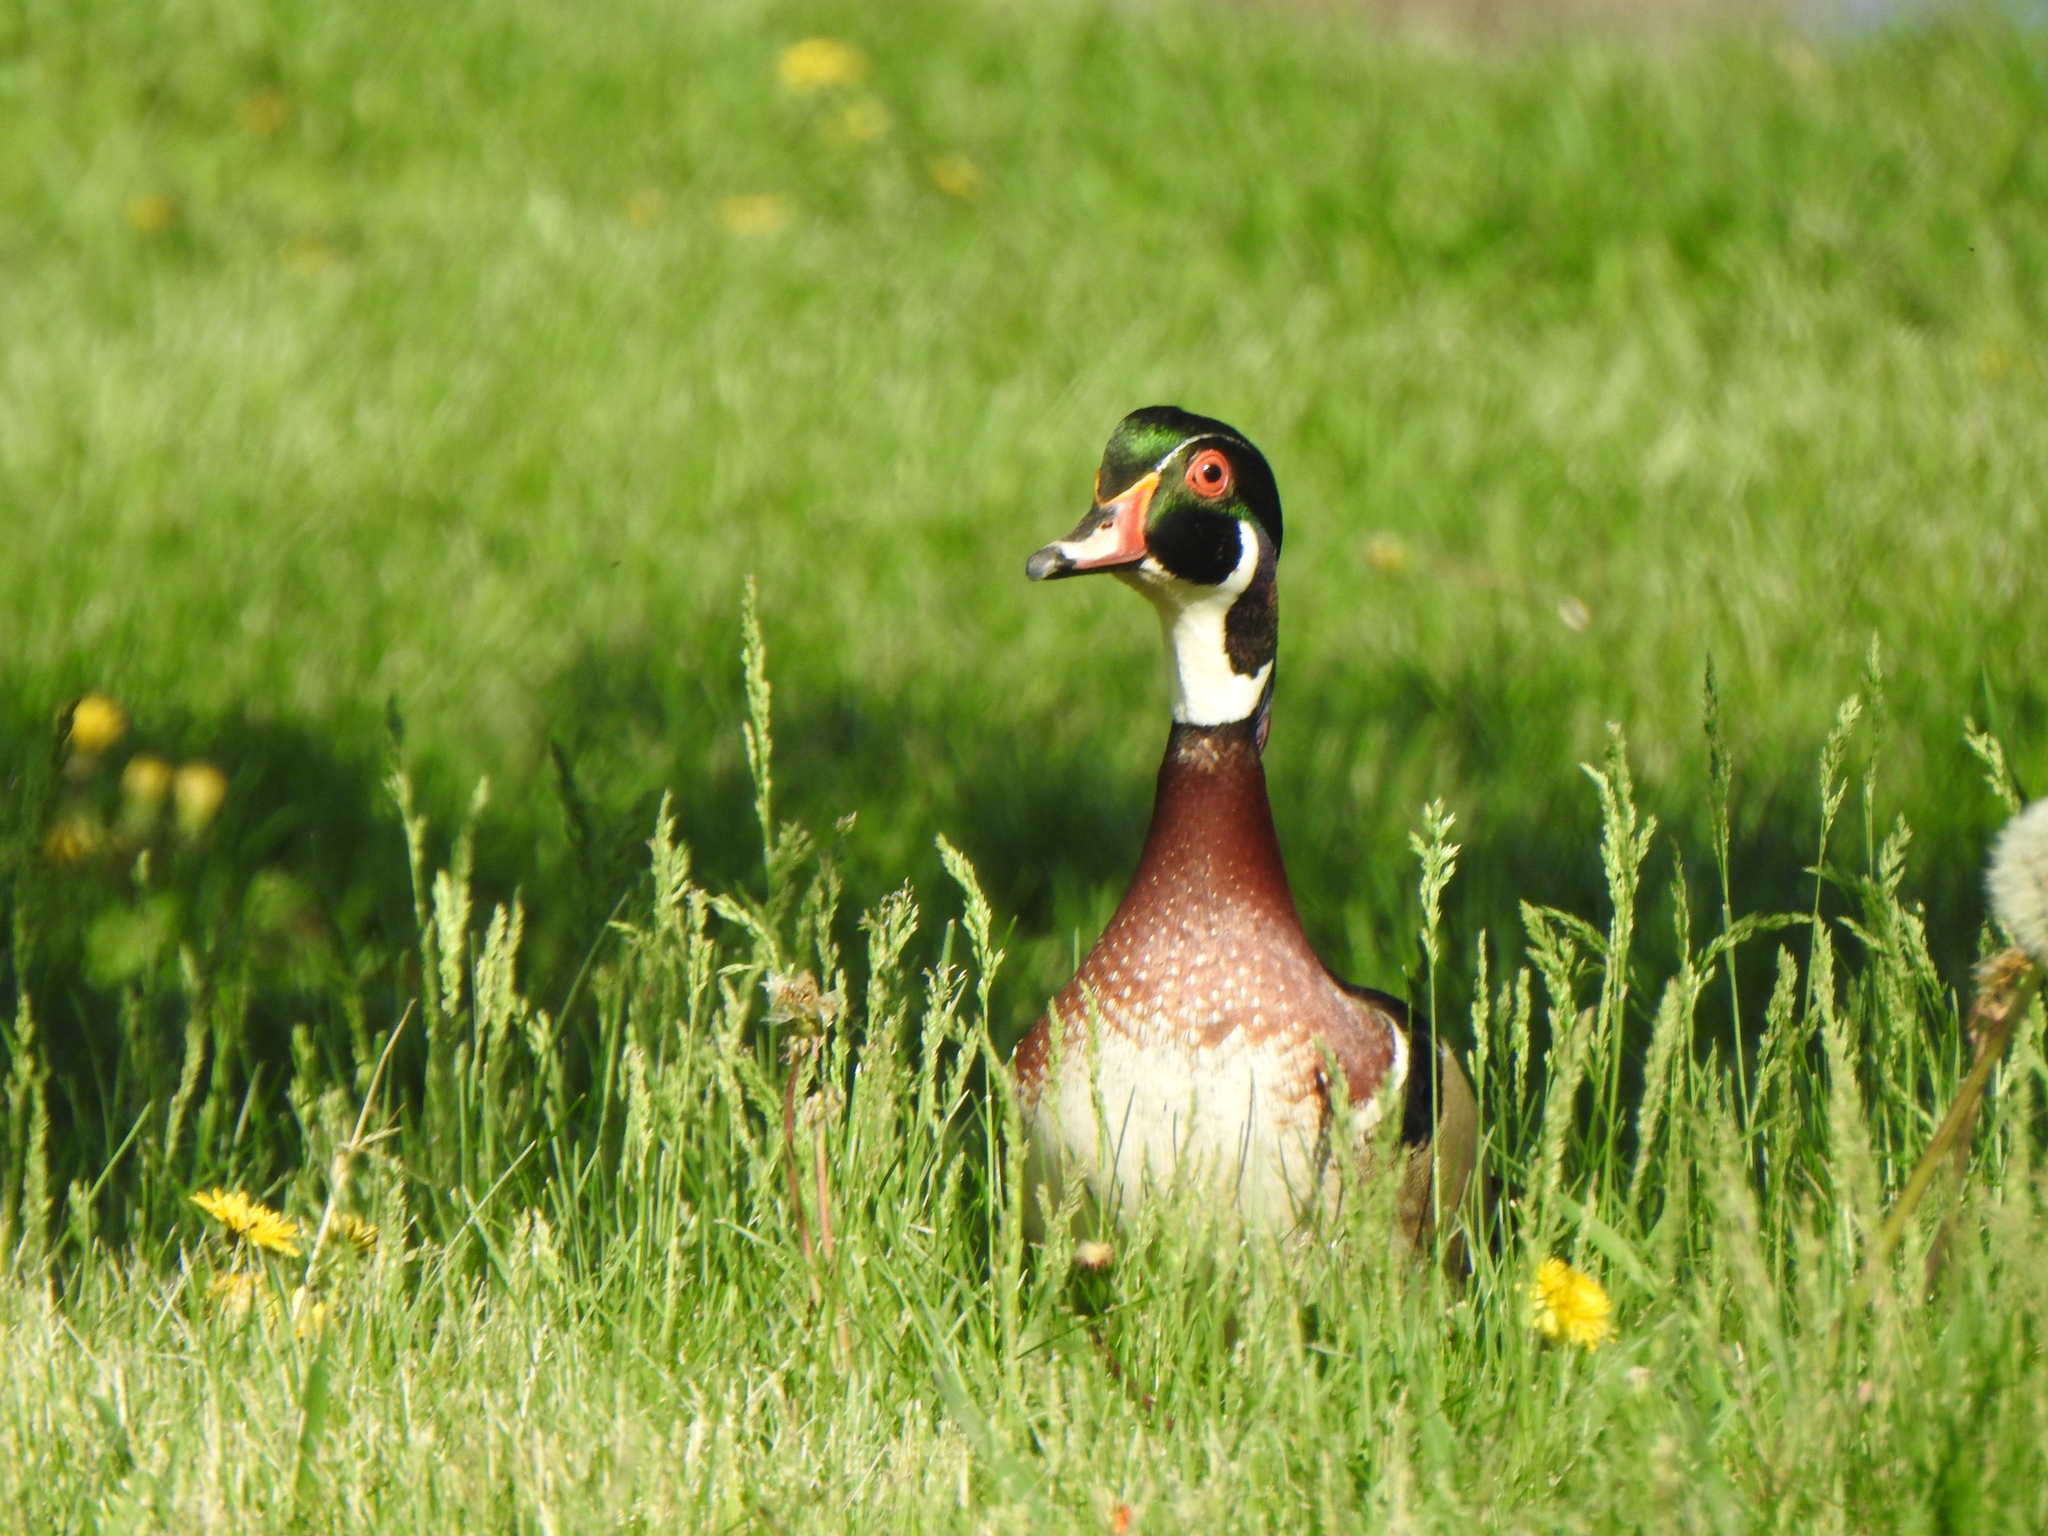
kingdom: Animalia
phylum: Chordata
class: Aves
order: Anseriformes
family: Anatidae
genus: Aix
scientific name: Aix sponsa
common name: Wood duck
